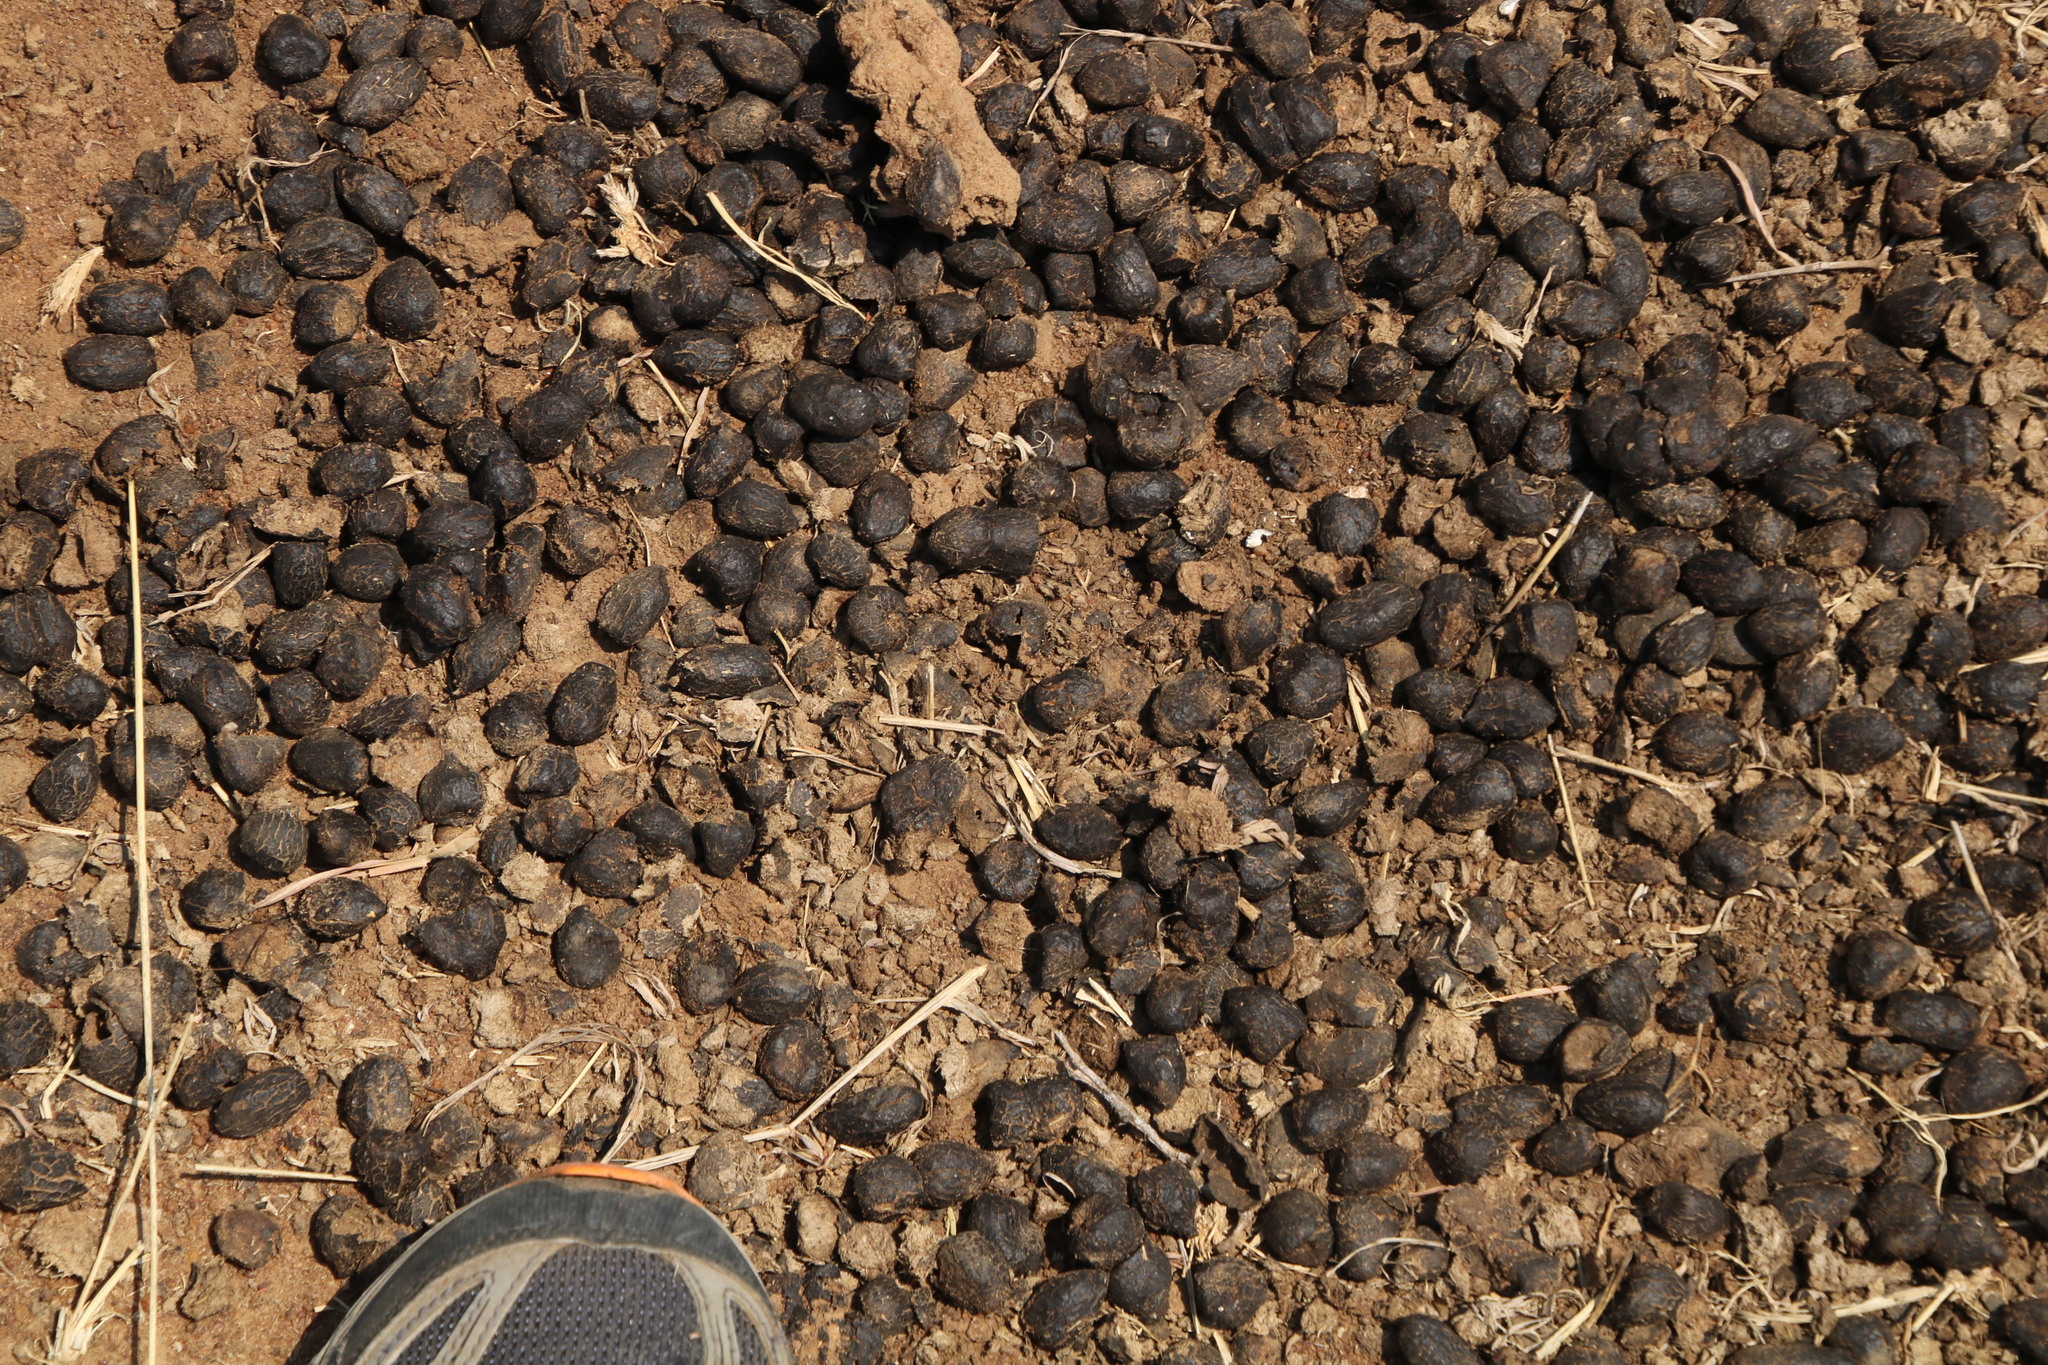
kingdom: Animalia
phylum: Chordata
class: Mammalia
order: Artiodactyla
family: Bovidae
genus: Aepyceros
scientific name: Aepyceros melampus
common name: Impala
